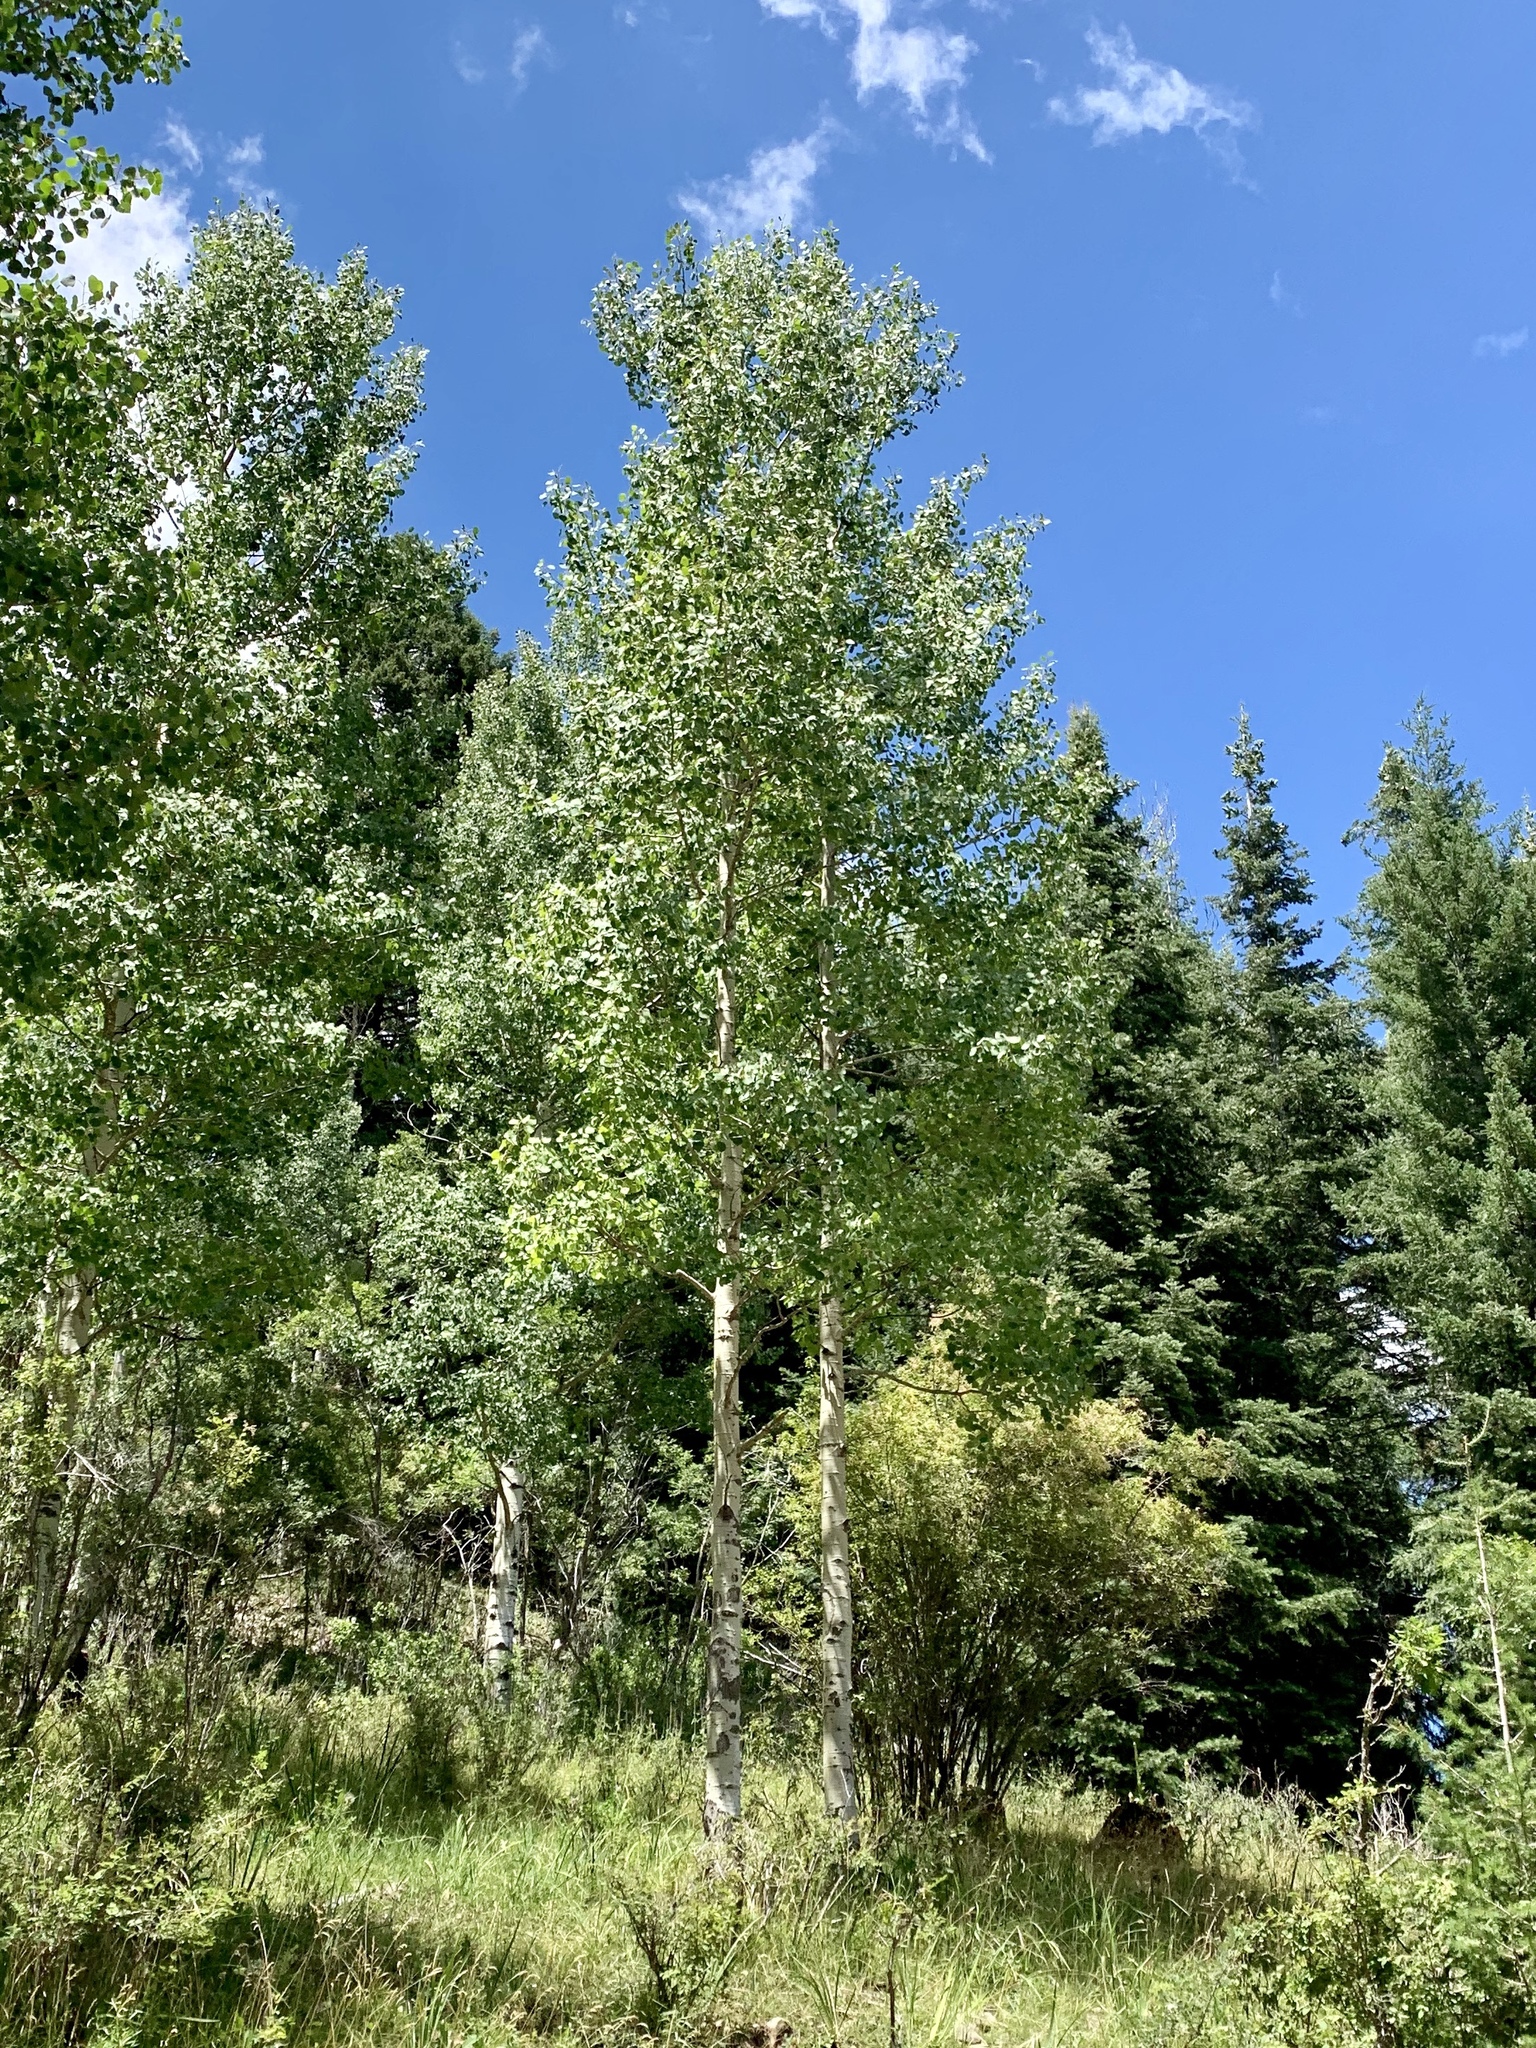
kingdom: Plantae
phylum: Tracheophyta
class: Magnoliopsida
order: Malpighiales
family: Salicaceae
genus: Populus
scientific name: Populus tremuloides
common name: Quaking aspen
